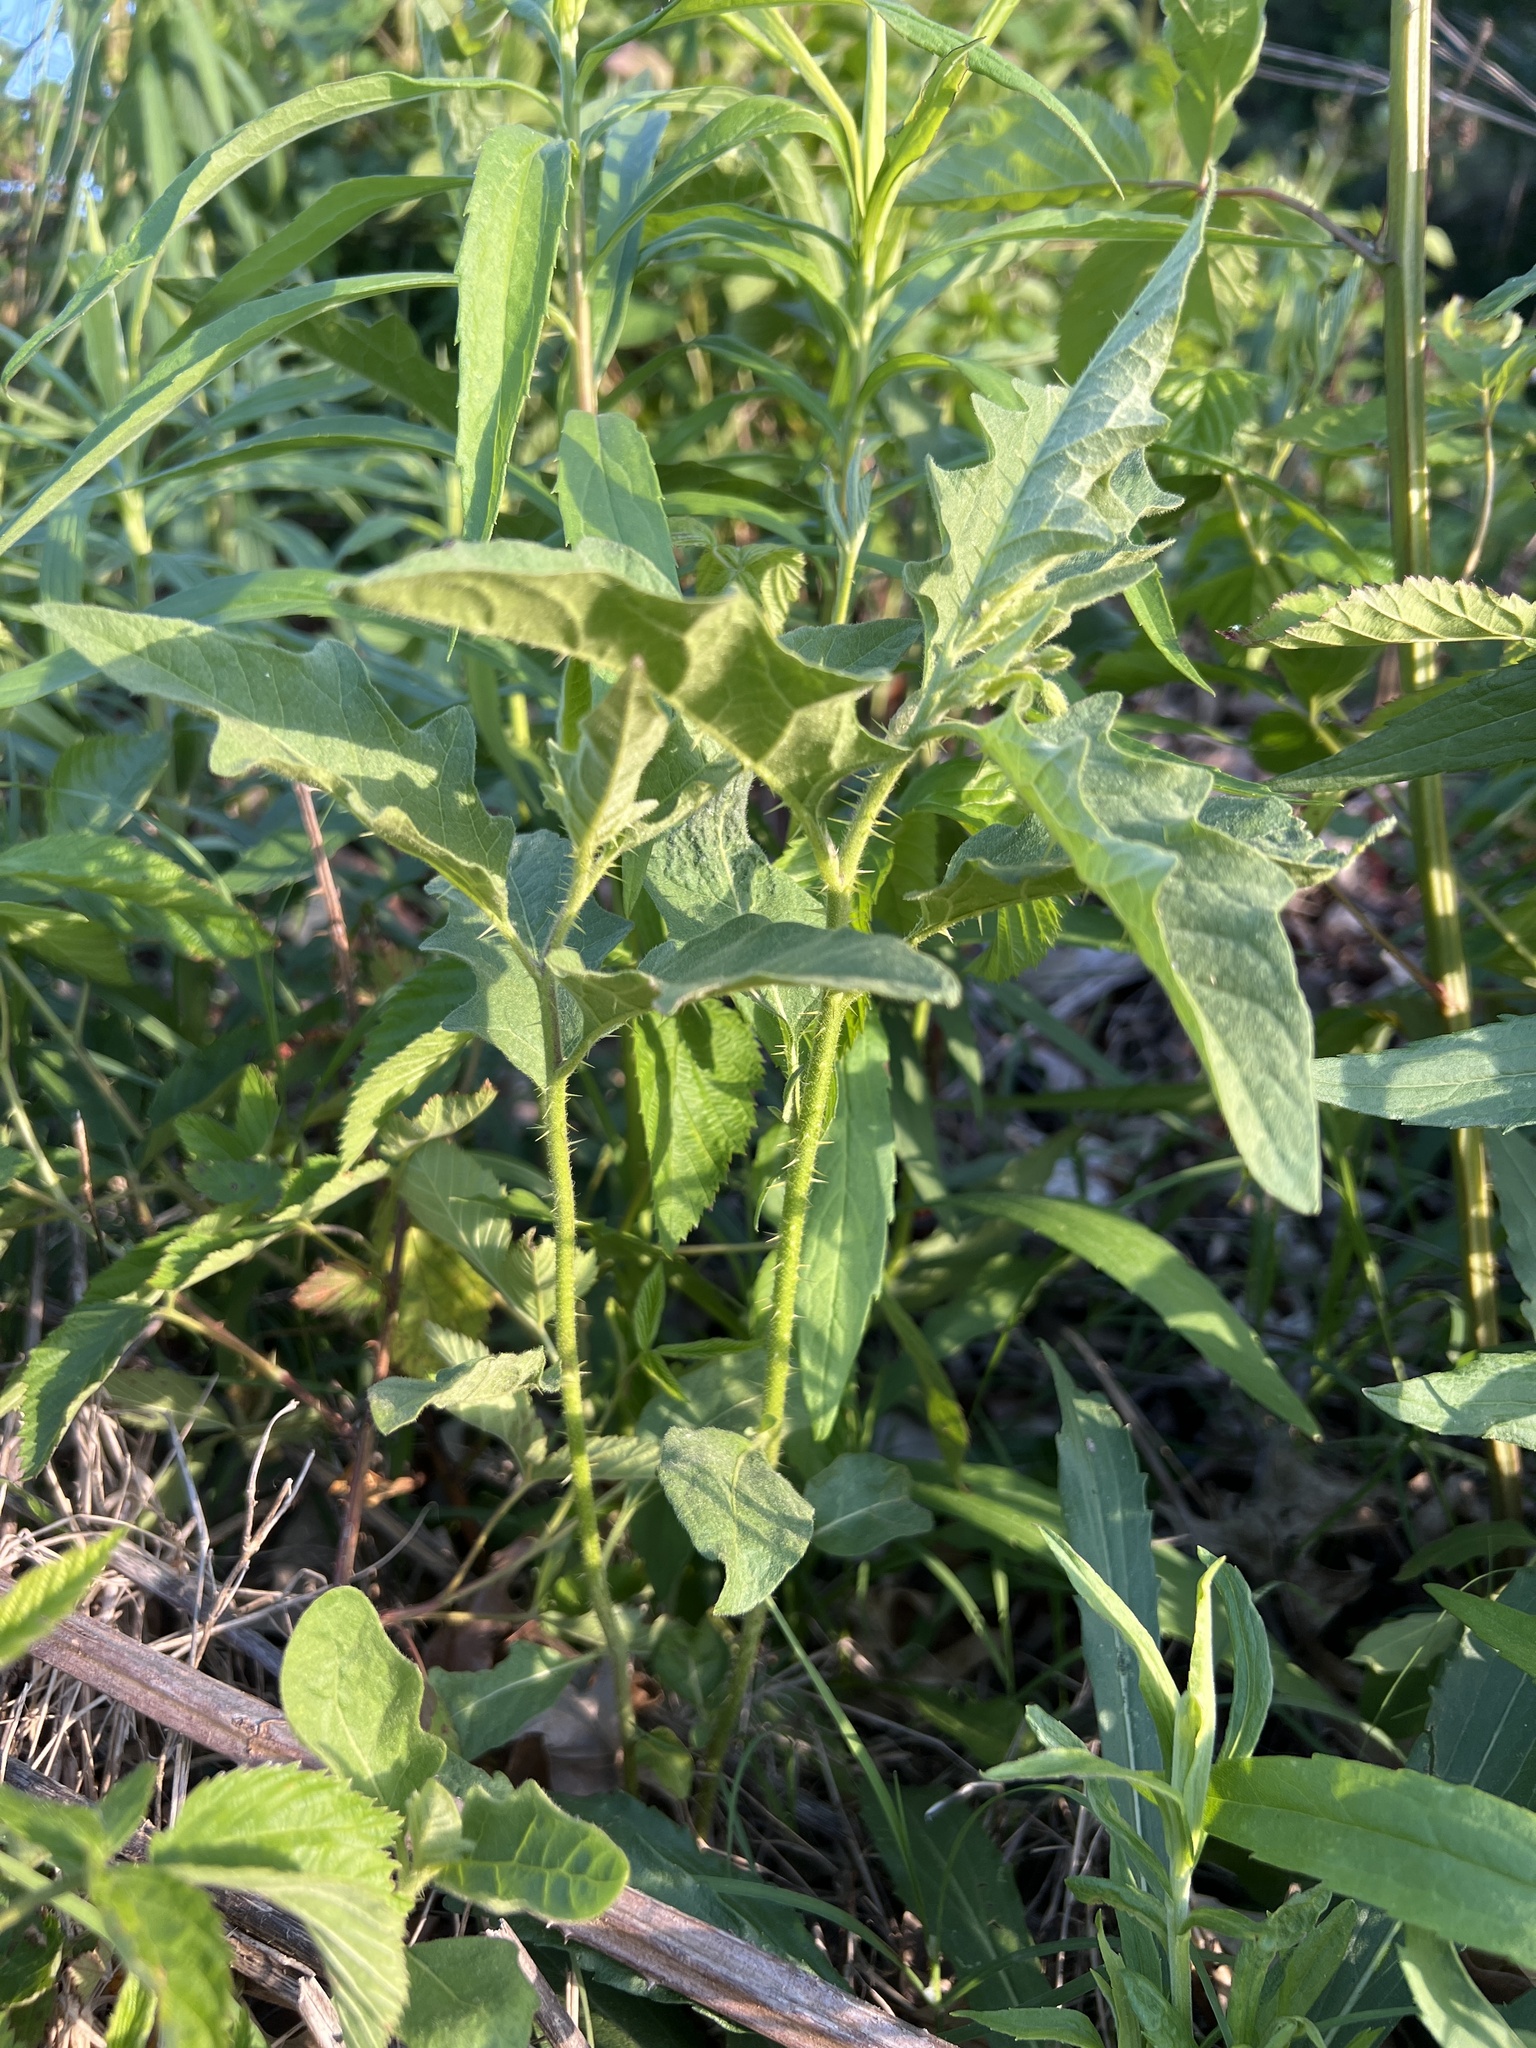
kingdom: Plantae
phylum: Tracheophyta
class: Magnoliopsida
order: Solanales
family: Solanaceae
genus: Solanum
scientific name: Solanum carolinense
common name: Horse-nettle
